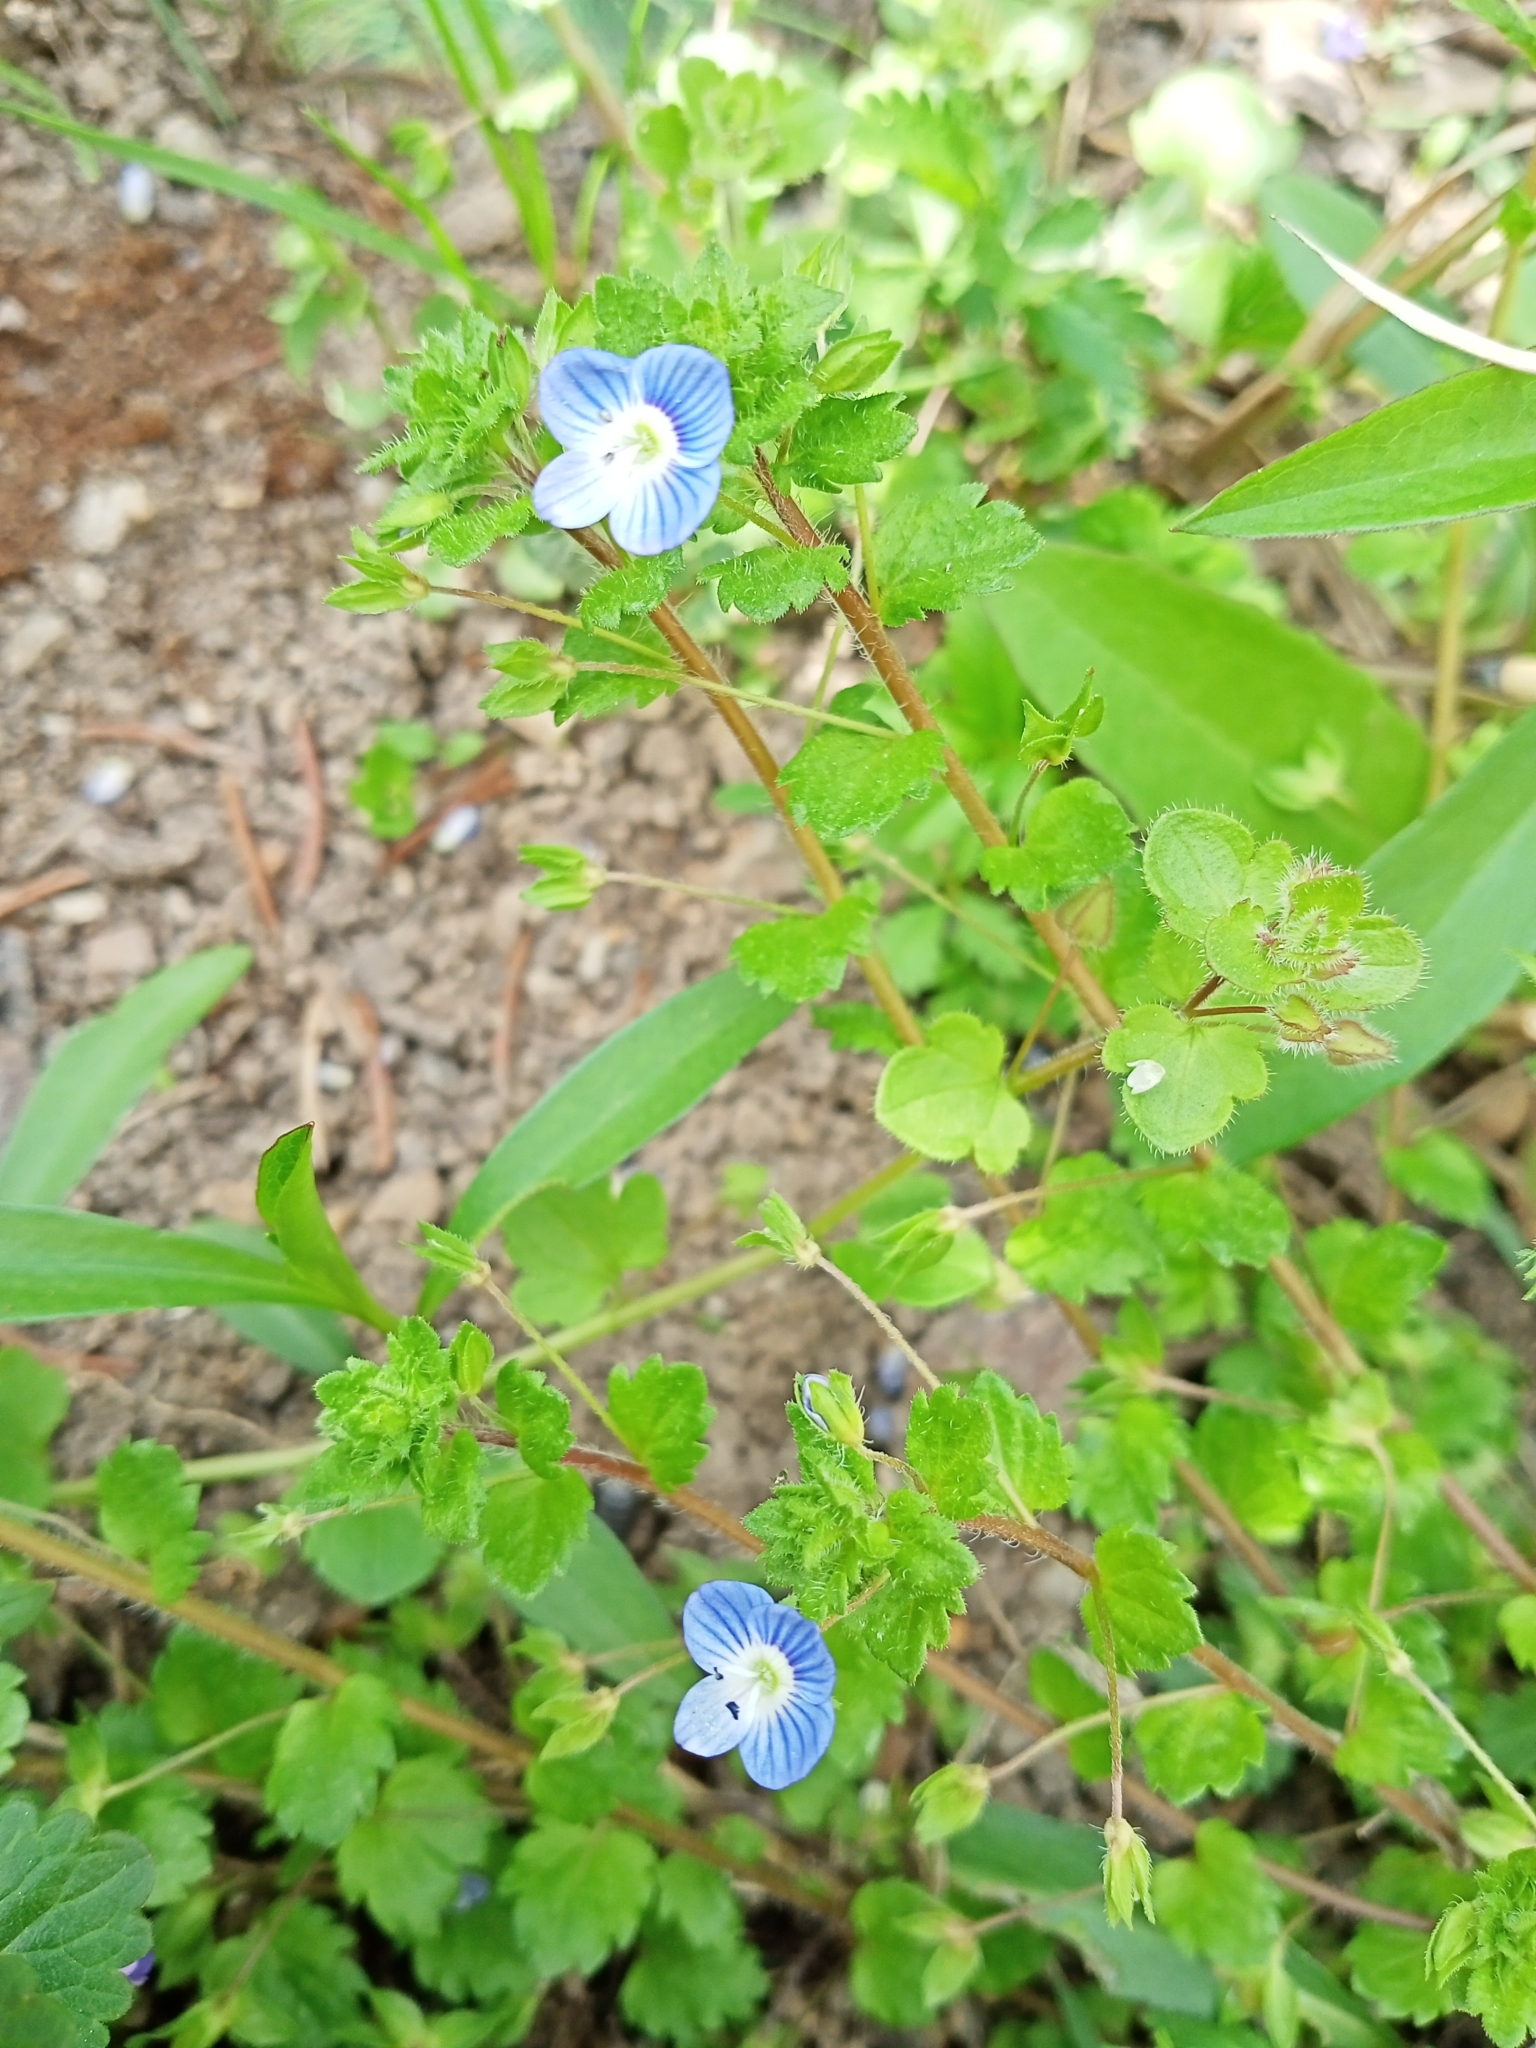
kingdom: Plantae
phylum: Tracheophyta
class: Magnoliopsida
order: Lamiales
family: Plantaginaceae
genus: Veronica
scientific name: Veronica persica
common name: Common field-speedwell
